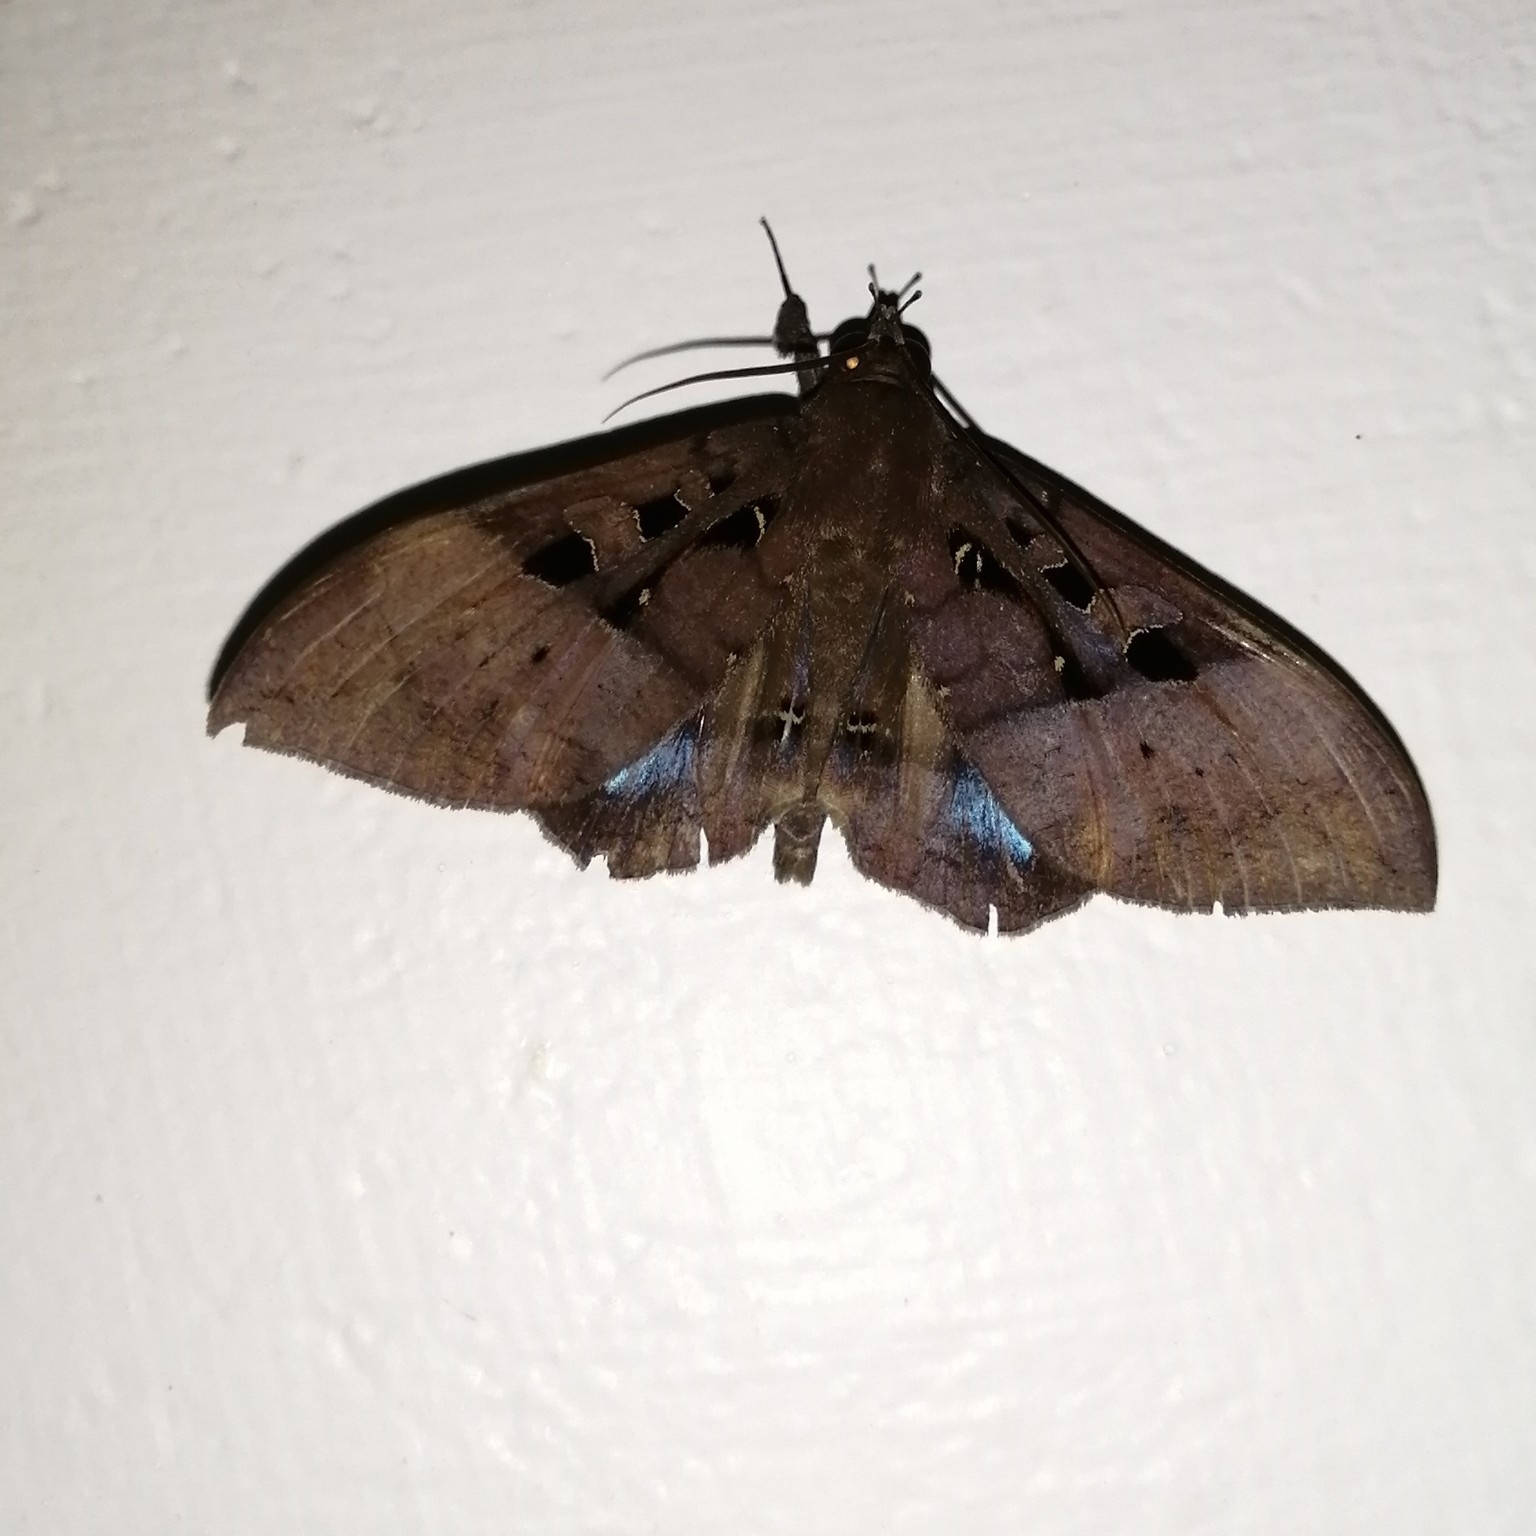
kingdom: Animalia
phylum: Arthropoda
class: Insecta
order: Lepidoptera
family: Erebidae
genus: Ischyja
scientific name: Ischyja marapok
